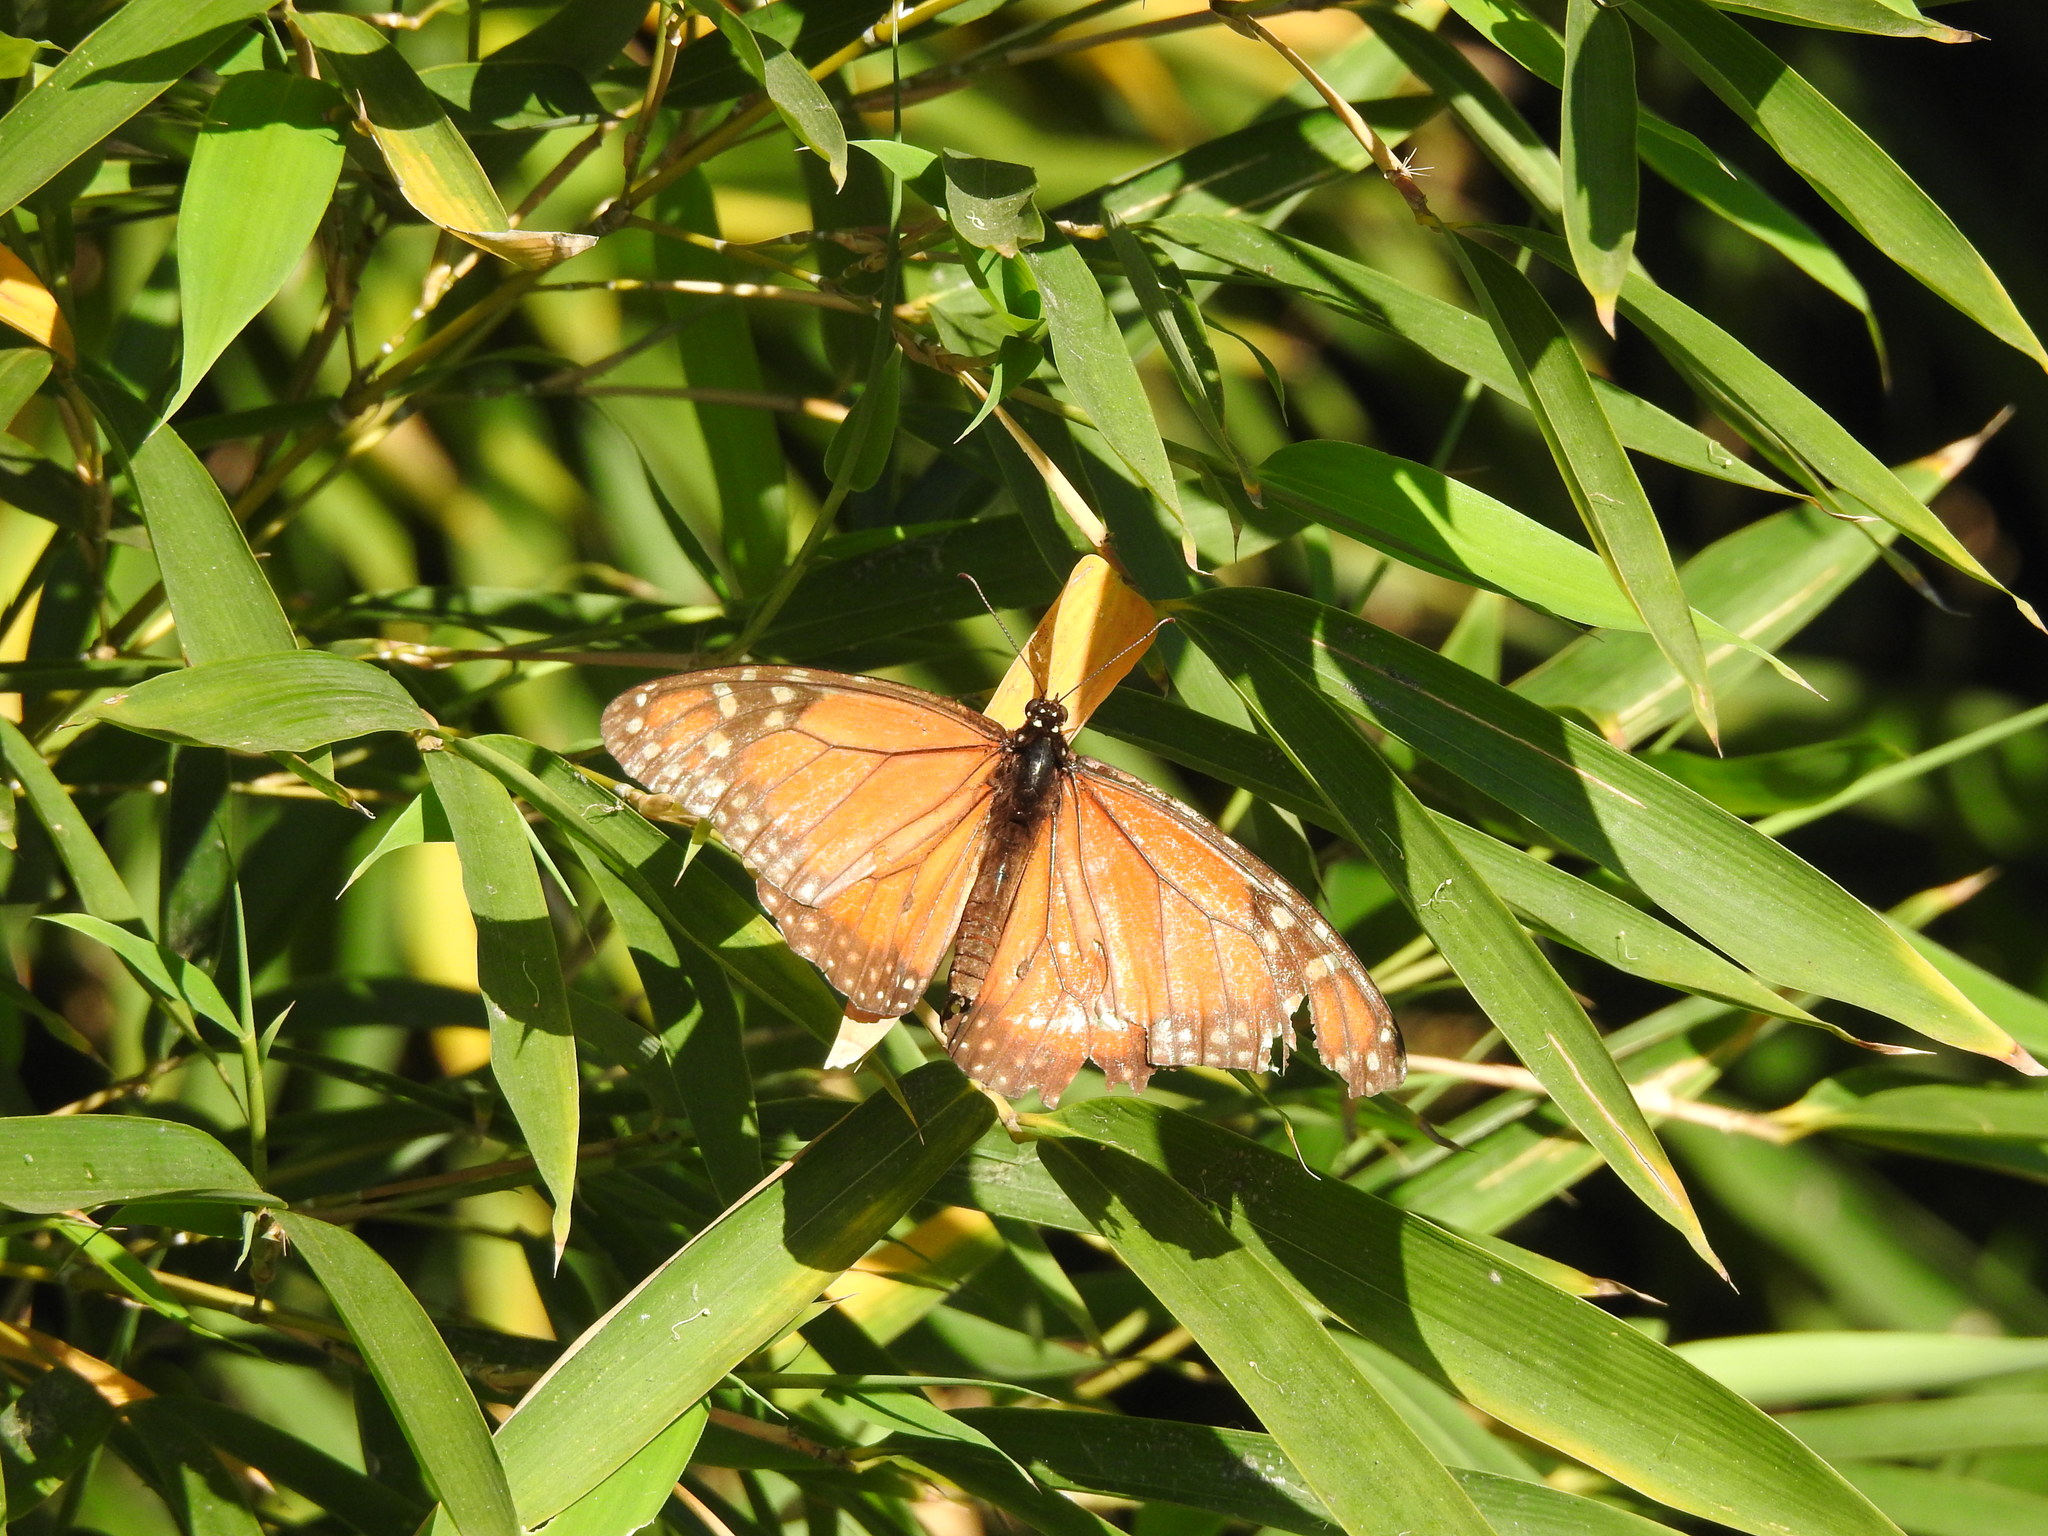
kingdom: Animalia
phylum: Arthropoda
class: Insecta
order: Lepidoptera
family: Nymphalidae
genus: Danaus
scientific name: Danaus erippus
